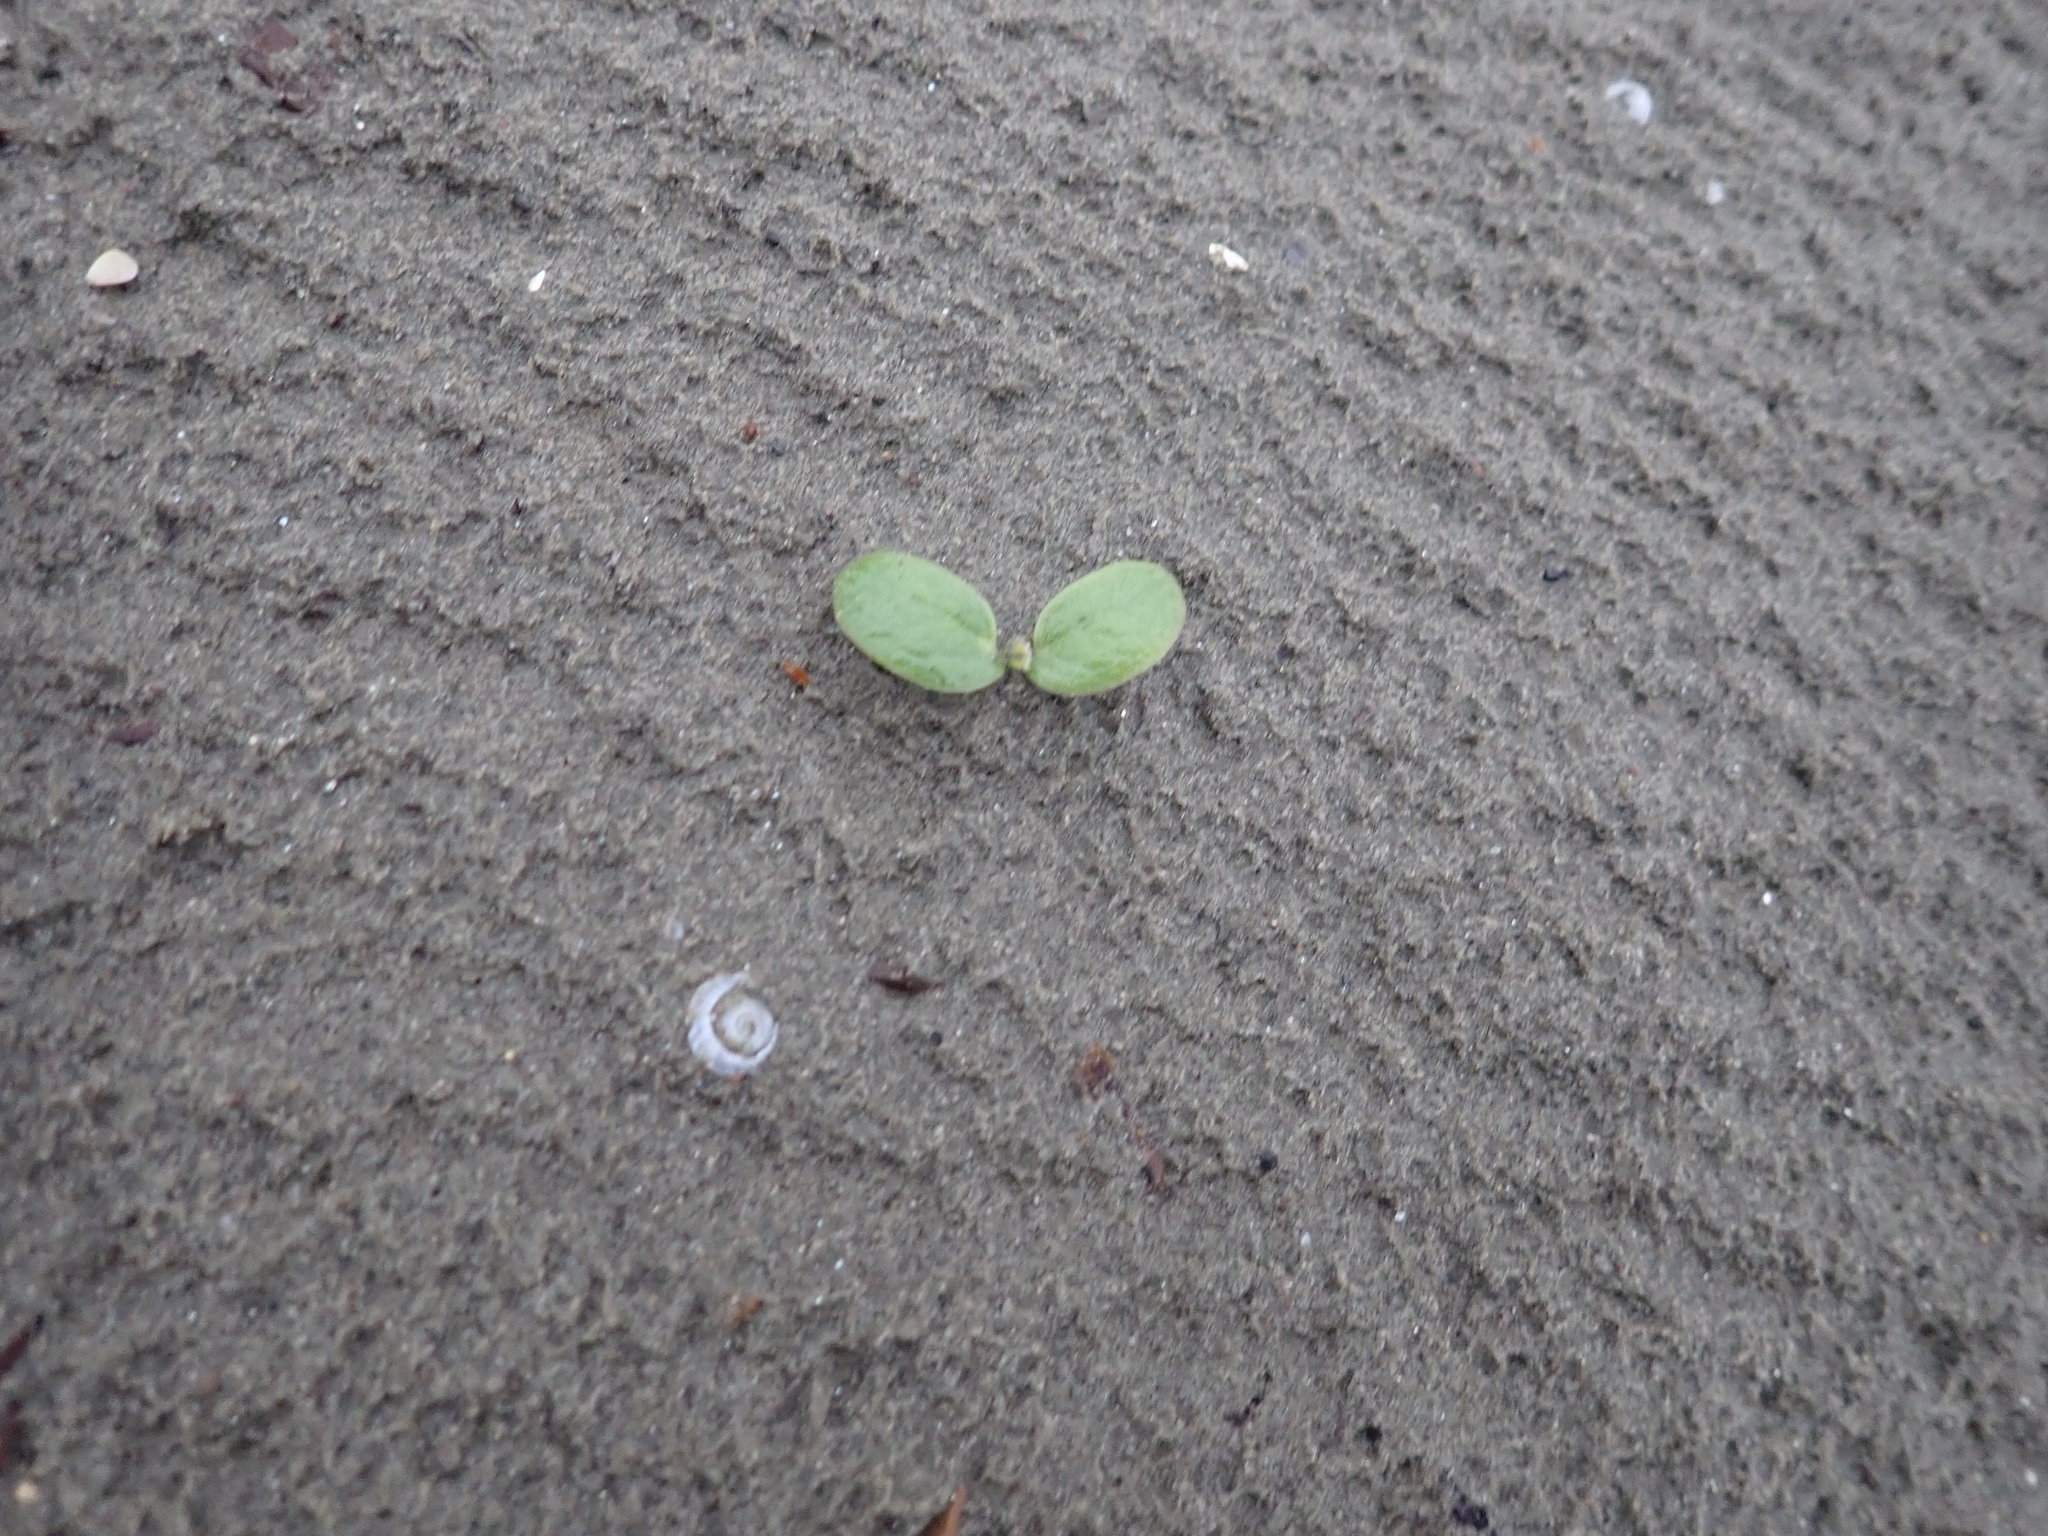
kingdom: Plantae
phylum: Tracheophyta
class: Magnoliopsida
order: Fabales
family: Fabaceae
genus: Lupinus
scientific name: Lupinus arboreus
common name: Yellow bush lupine
